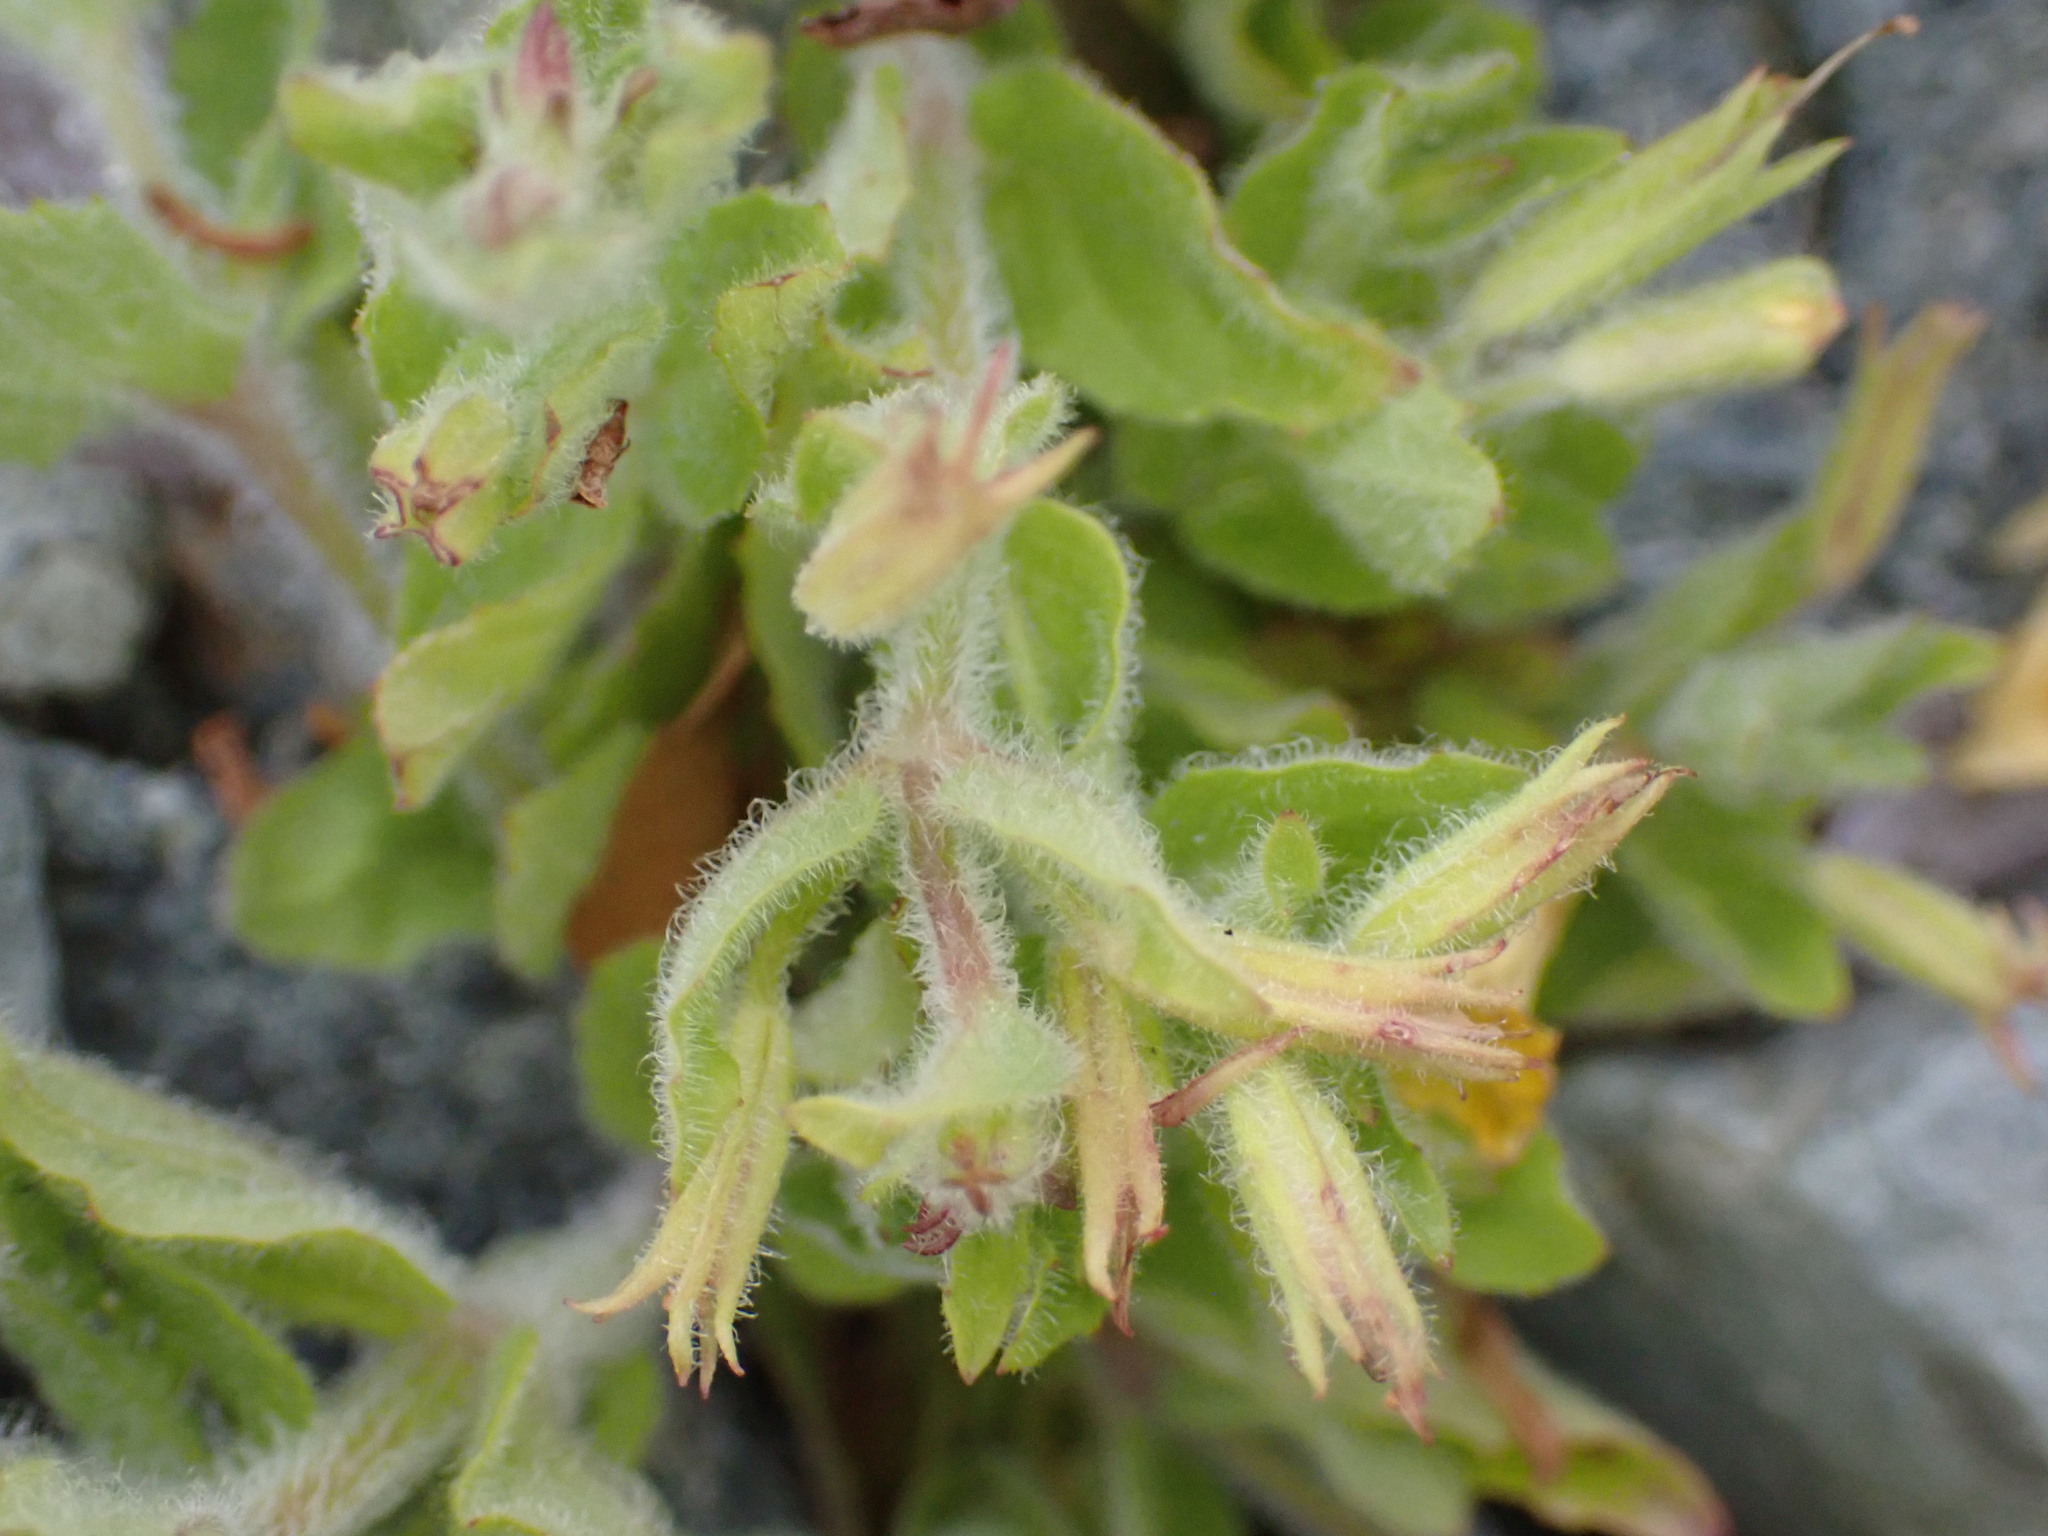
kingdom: Plantae
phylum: Tracheophyta
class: Magnoliopsida
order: Lamiales
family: Phrymaceae
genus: Erythranthe
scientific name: Erythranthe moschata
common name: Muskflower
